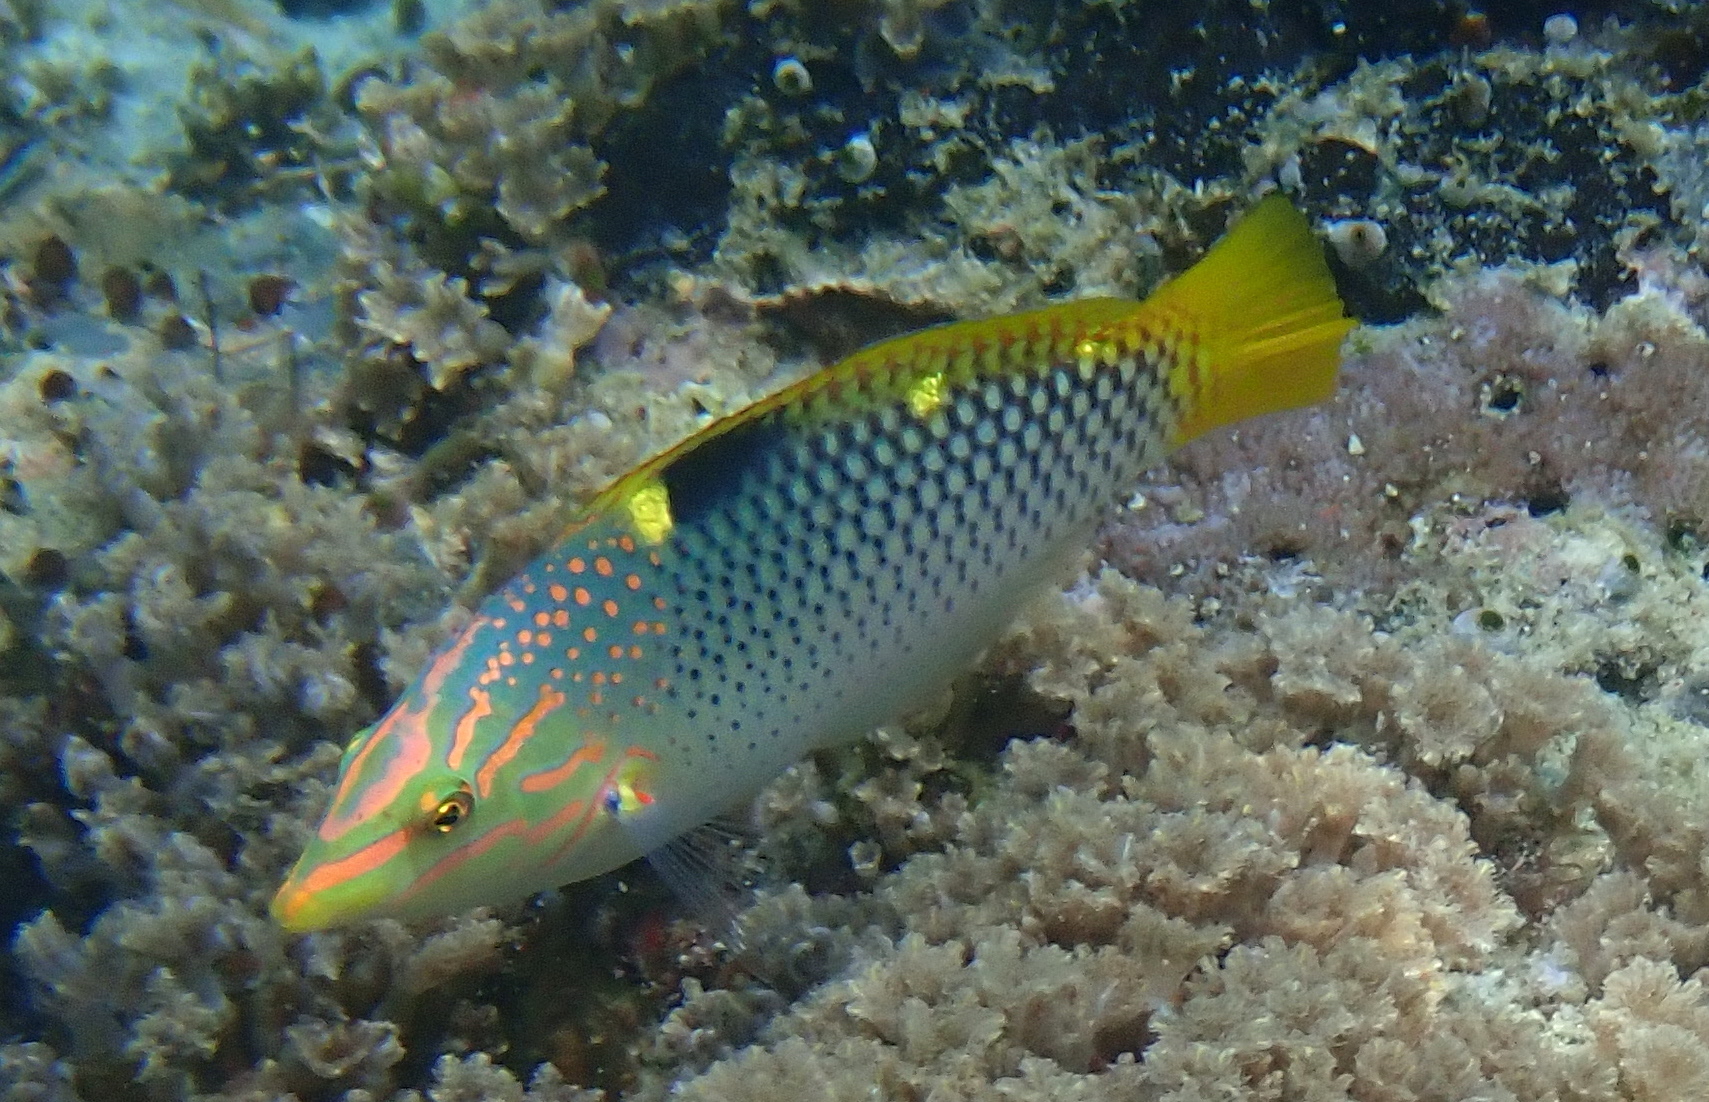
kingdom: Animalia
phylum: Chordata
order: Perciformes
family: Labridae
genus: Halichoeres
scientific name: Halichoeres hortulanus
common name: Checkerboard wrasse
